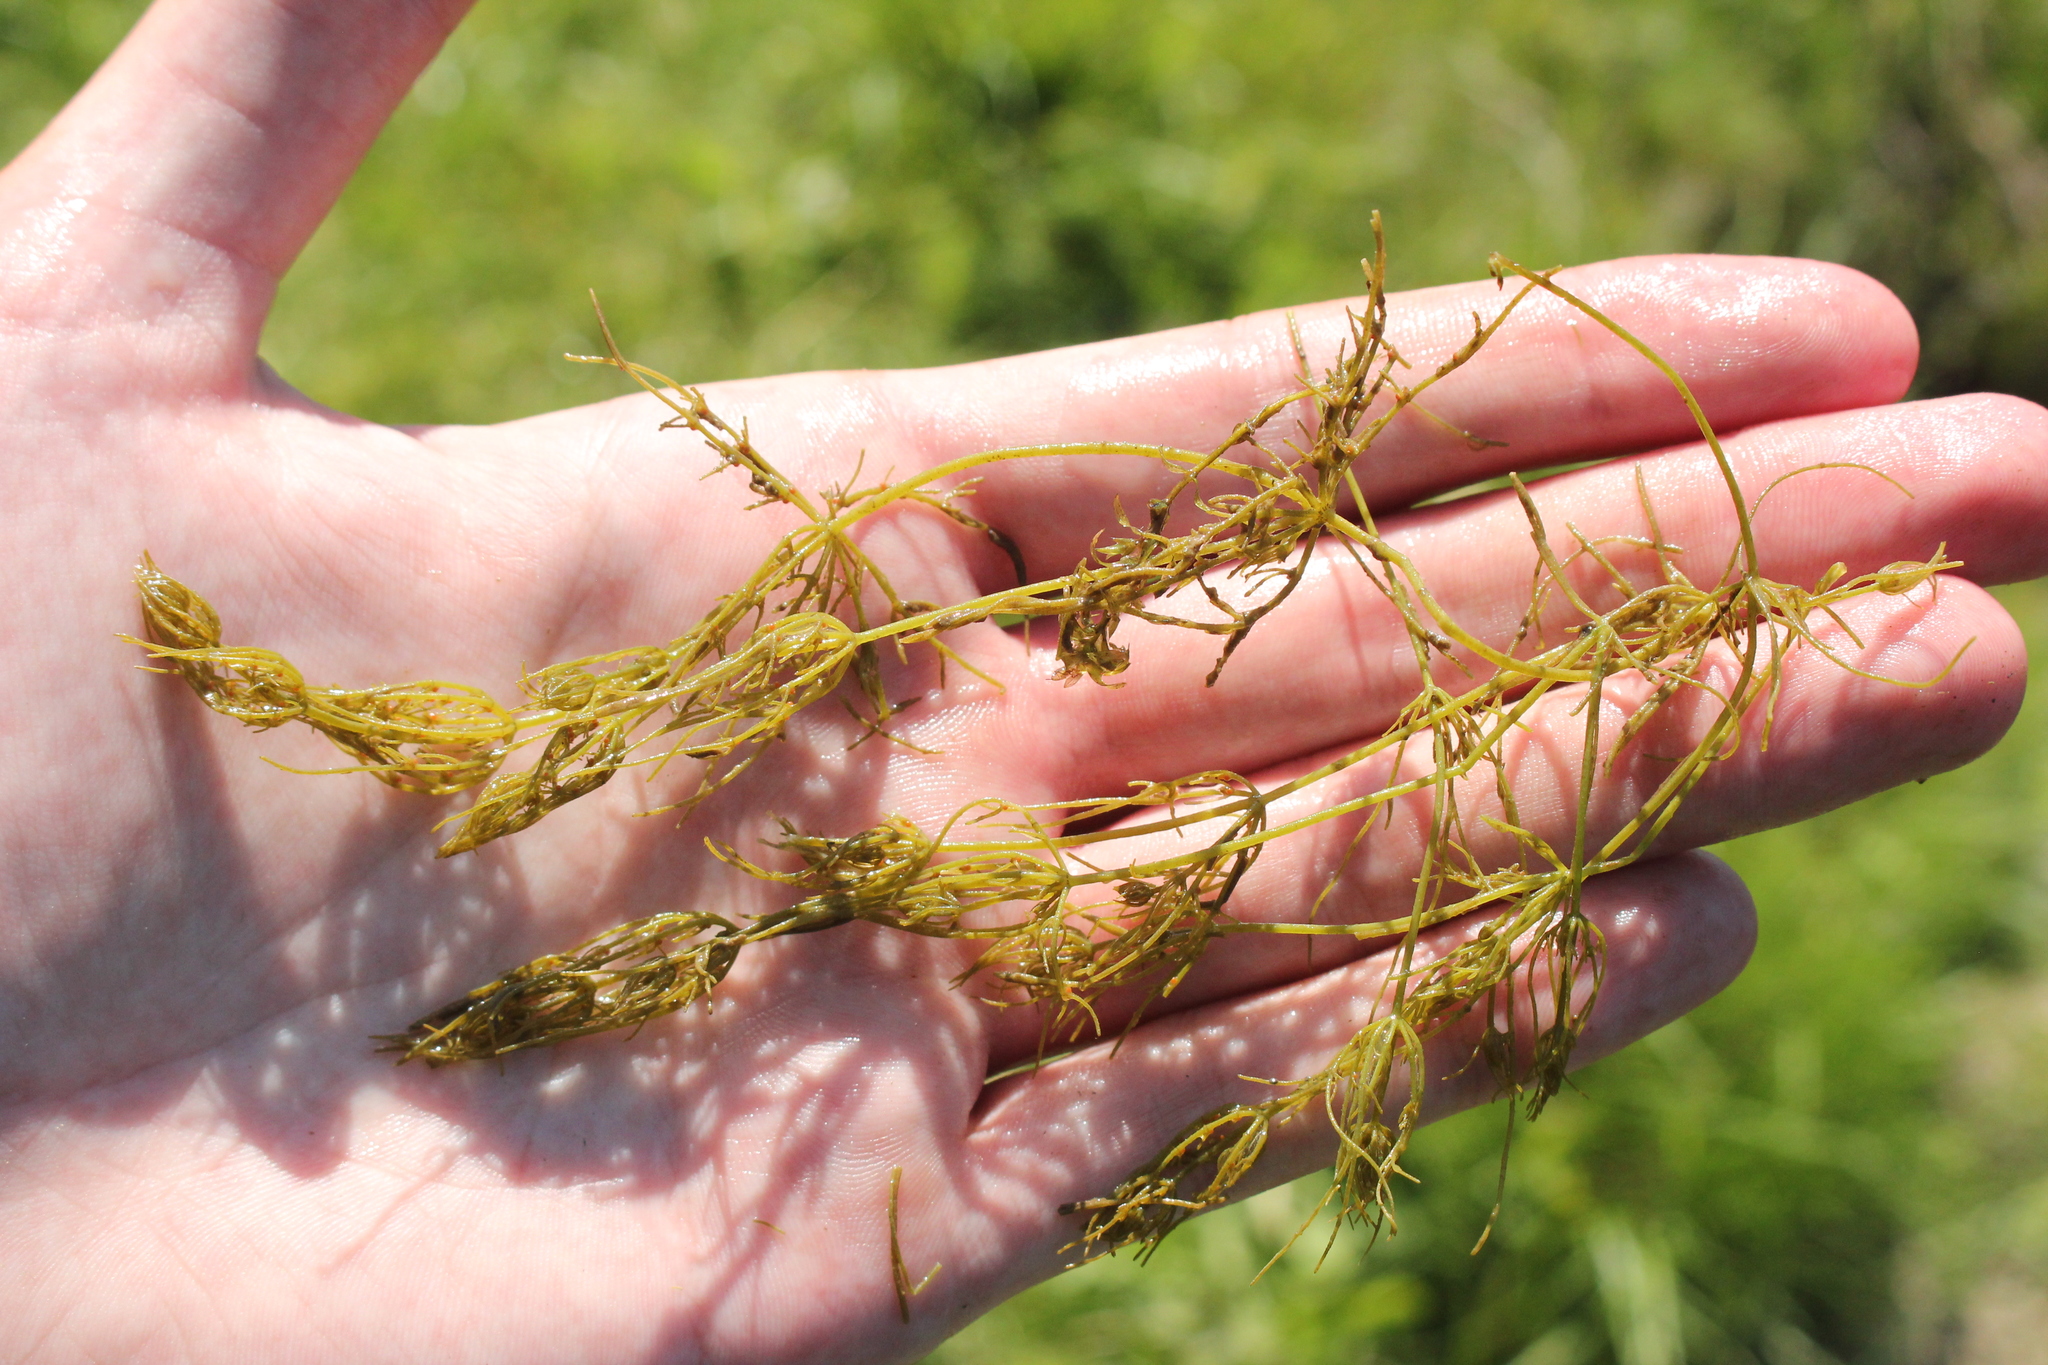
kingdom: Plantae
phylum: Charophyta
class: Charophyceae
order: Charales
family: Characeae
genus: Chara
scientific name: Chara vulgaris
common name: Common stonewort
